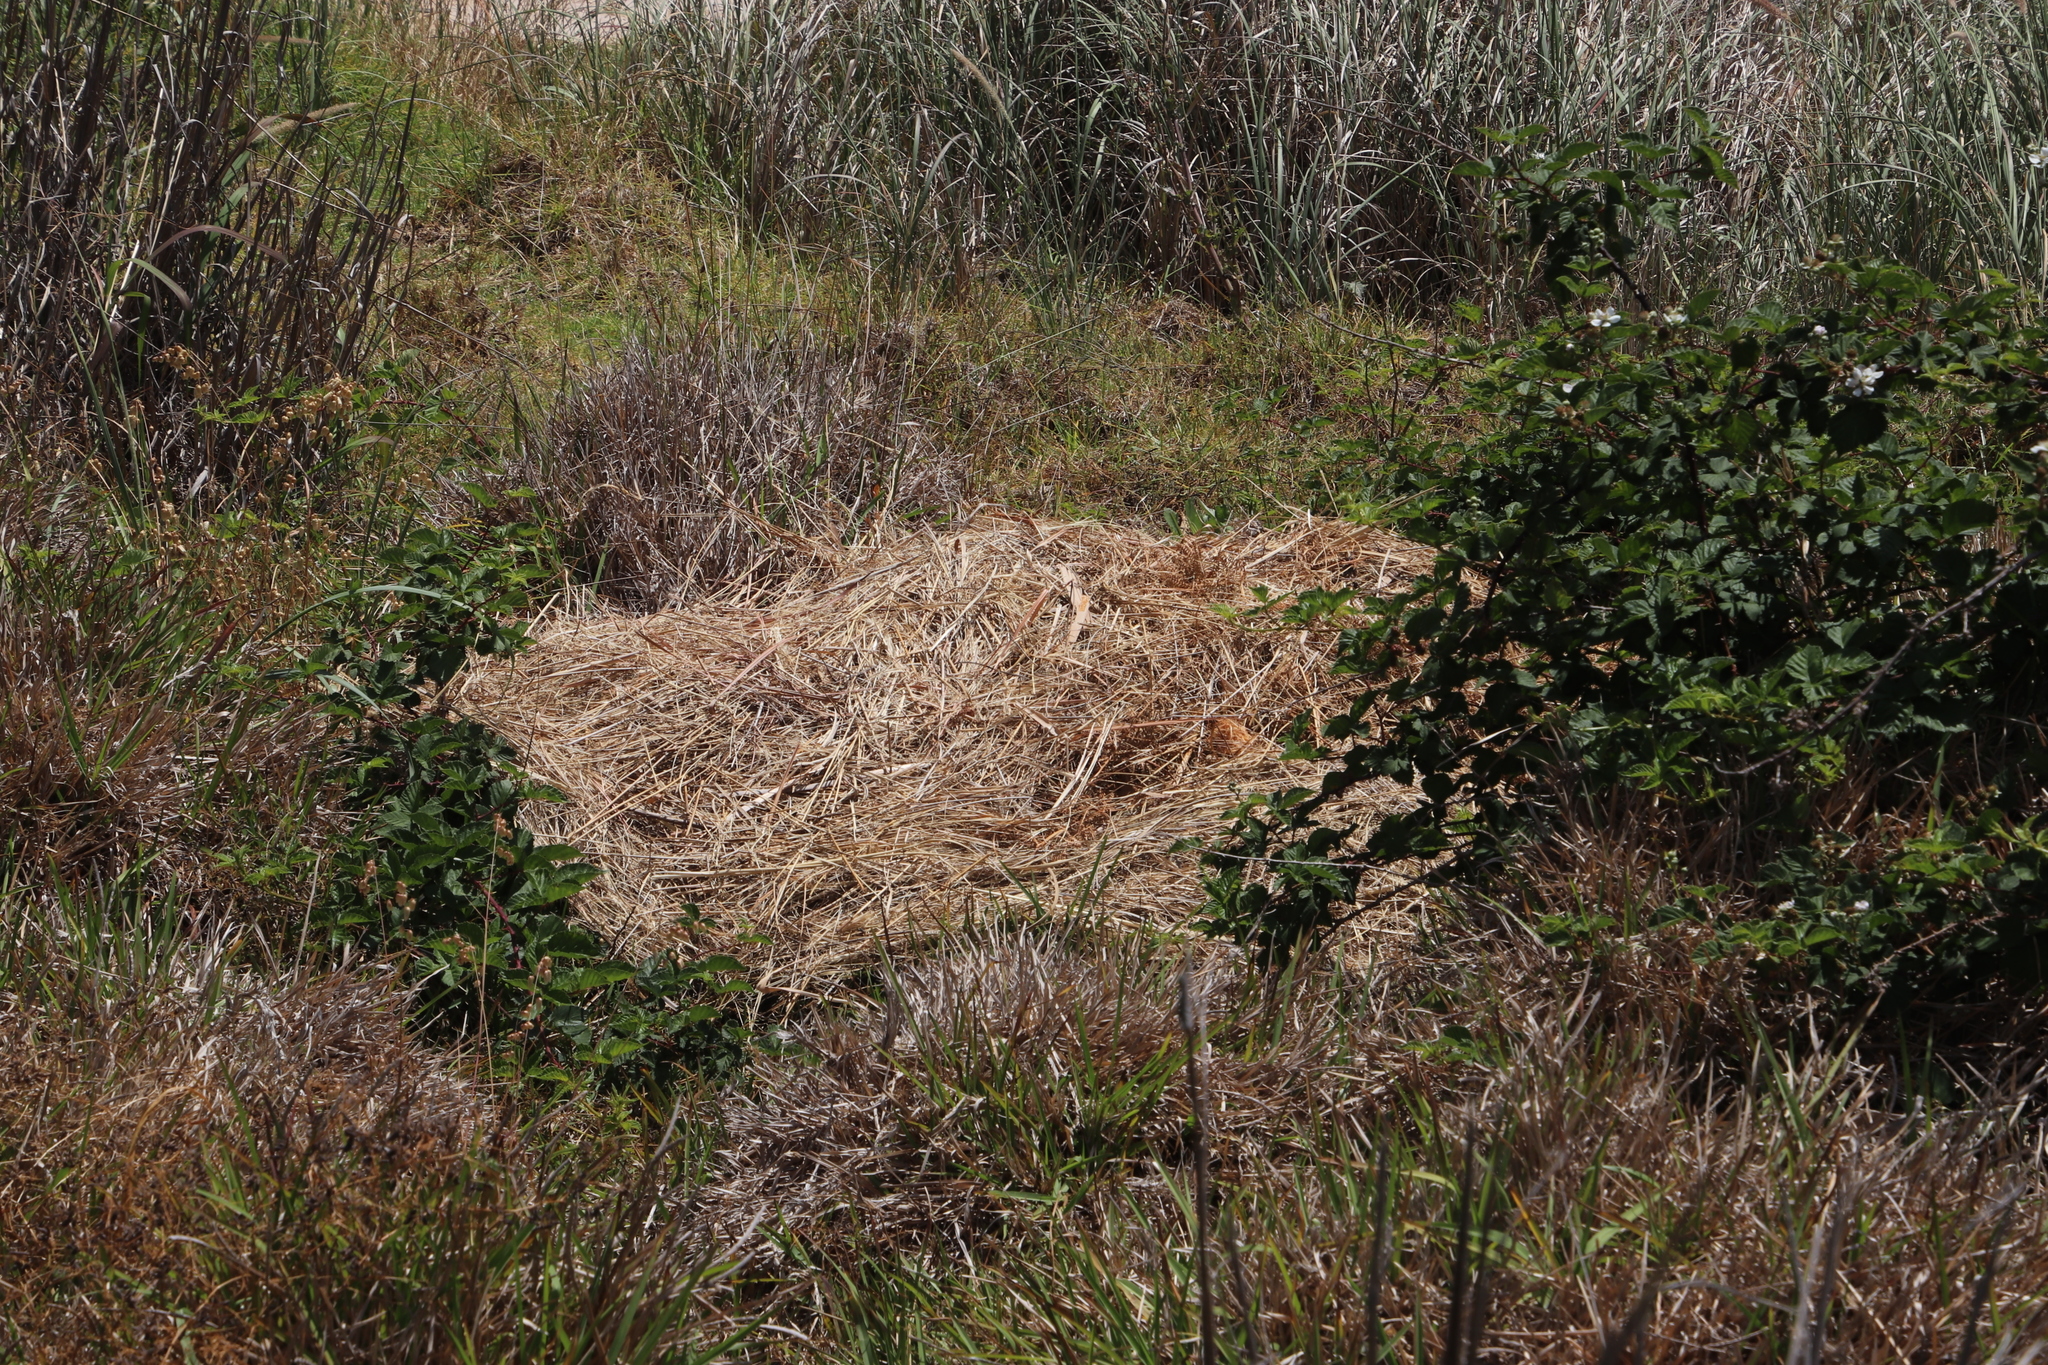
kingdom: Plantae
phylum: Tracheophyta
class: Liliopsida
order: Poales
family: Poaceae
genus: Cenchrus
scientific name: Cenchrus clandestinus
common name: Kikuyugrass
